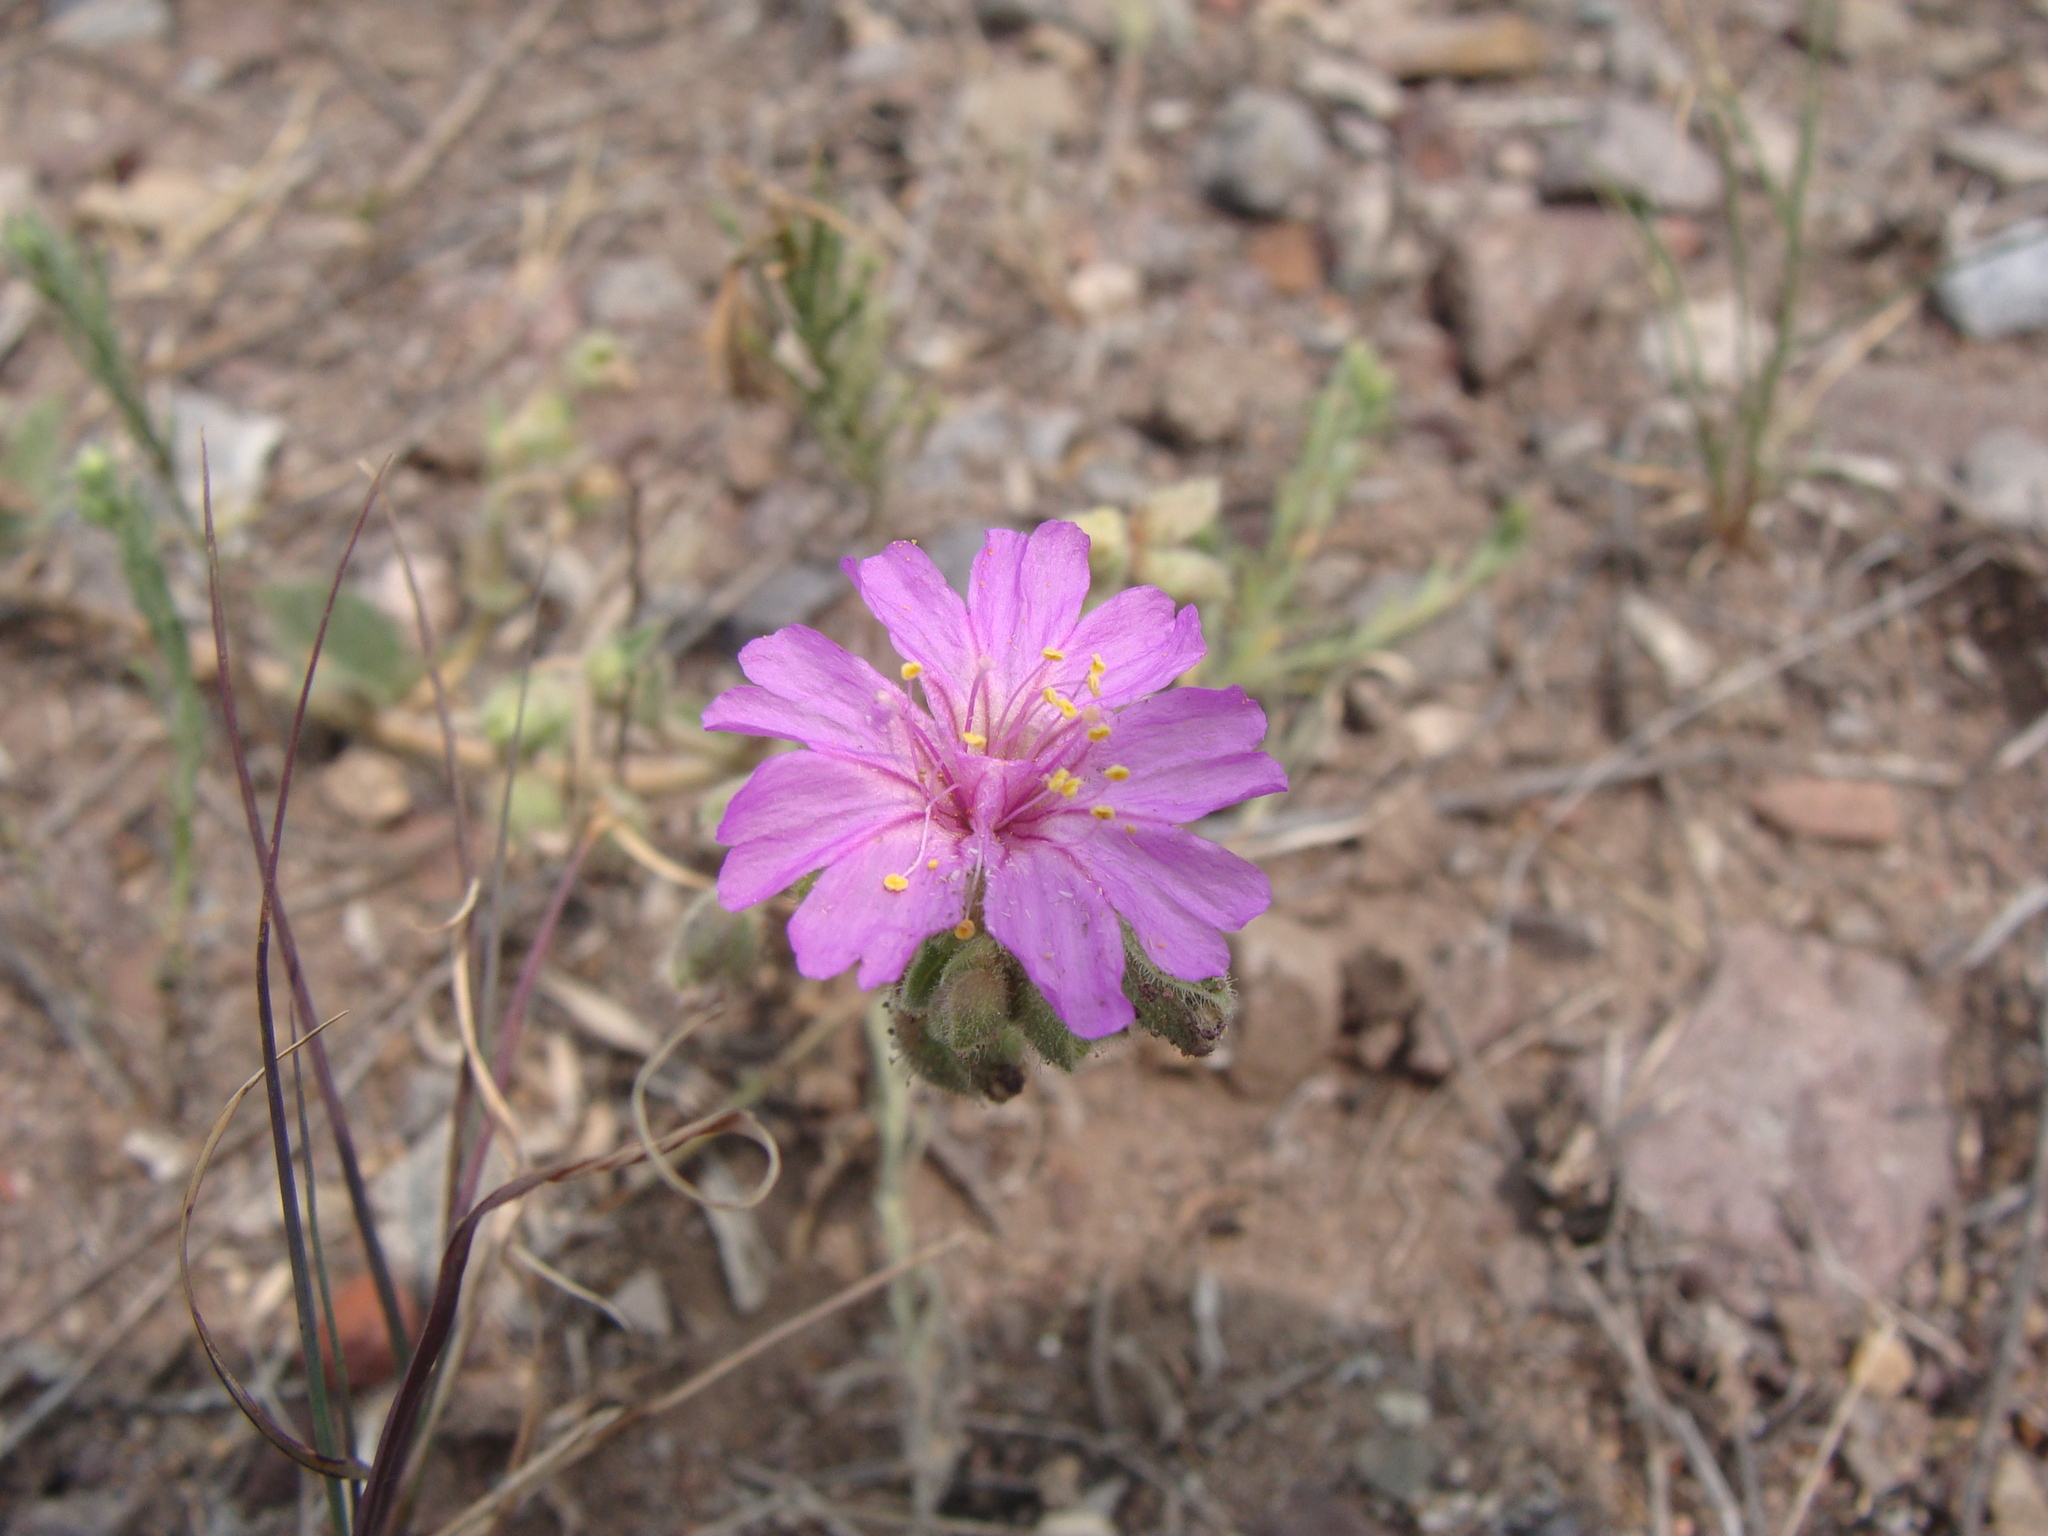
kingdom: Plantae
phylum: Tracheophyta
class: Magnoliopsida
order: Caryophyllales
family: Nyctaginaceae
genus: Allionia
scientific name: Allionia incarnata
